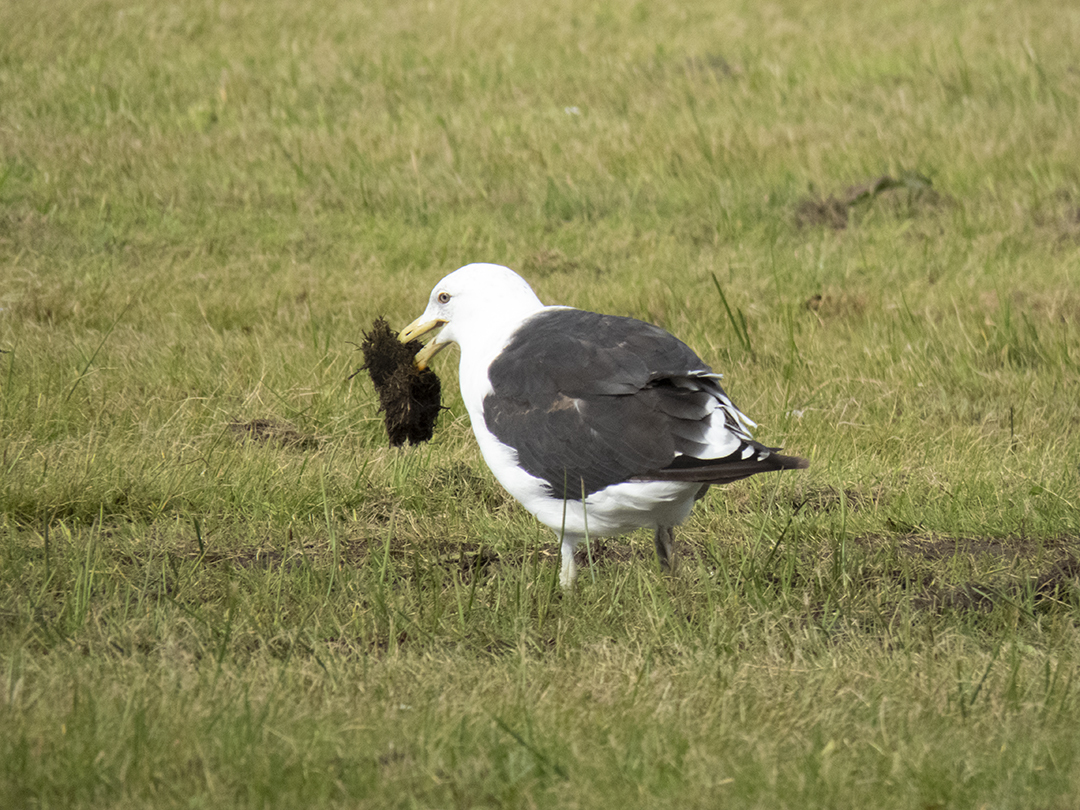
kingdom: Animalia
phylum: Chordata
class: Aves
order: Charadriiformes
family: Laridae
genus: Larus
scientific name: Larus dominicanus
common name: Kelp gull
